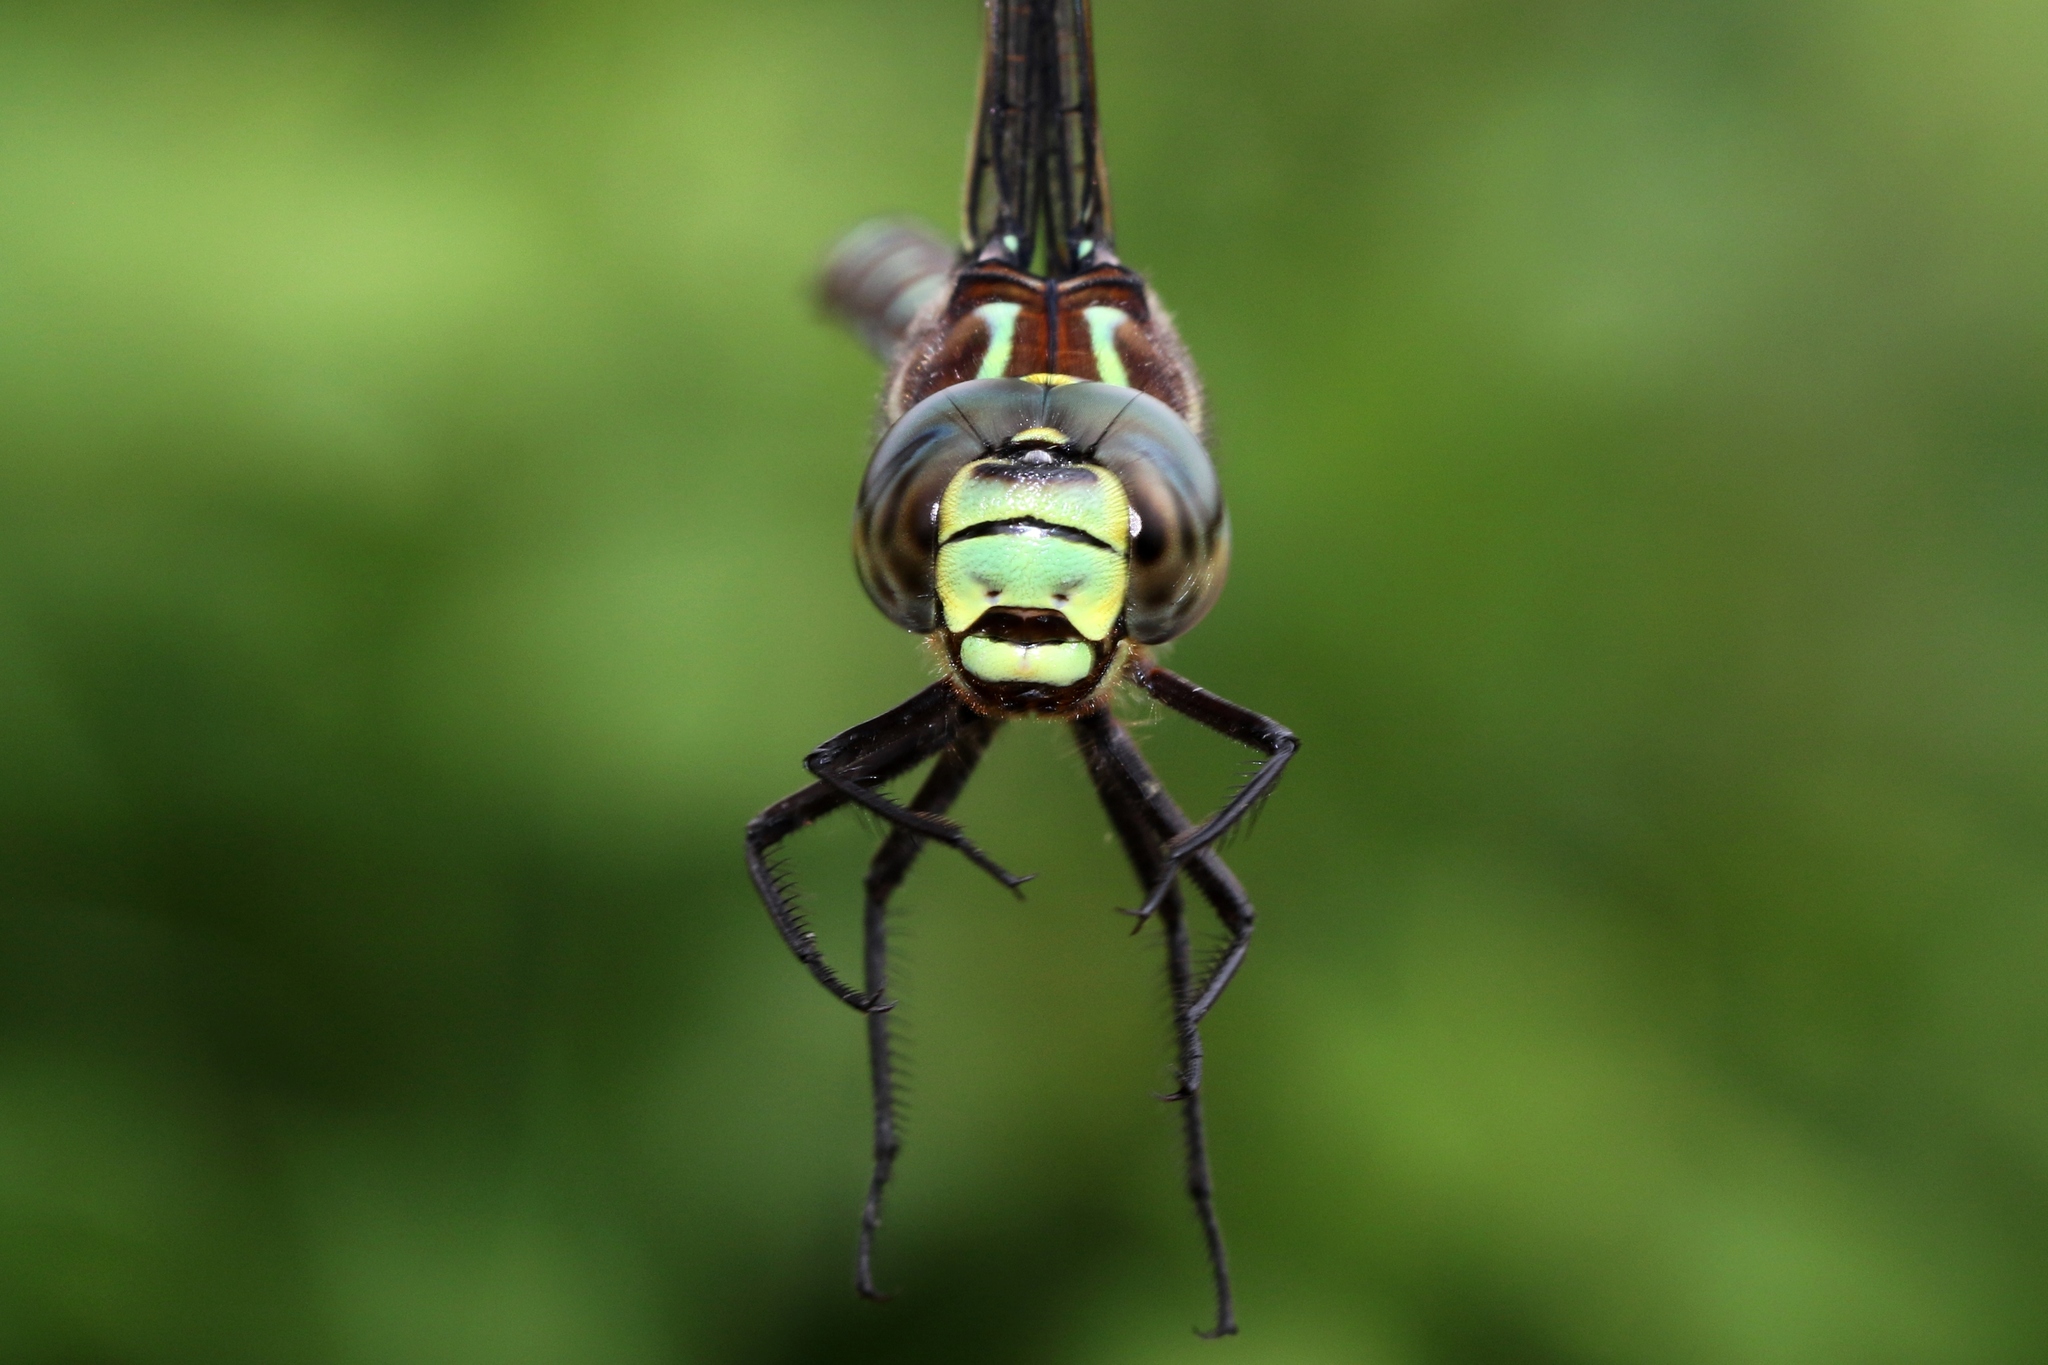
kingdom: Animalia
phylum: Arthropoda
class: Insecta
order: Odonata
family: Aeshnidae
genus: Aeshna
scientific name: Aeshna juncea
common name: Moorland hawker
